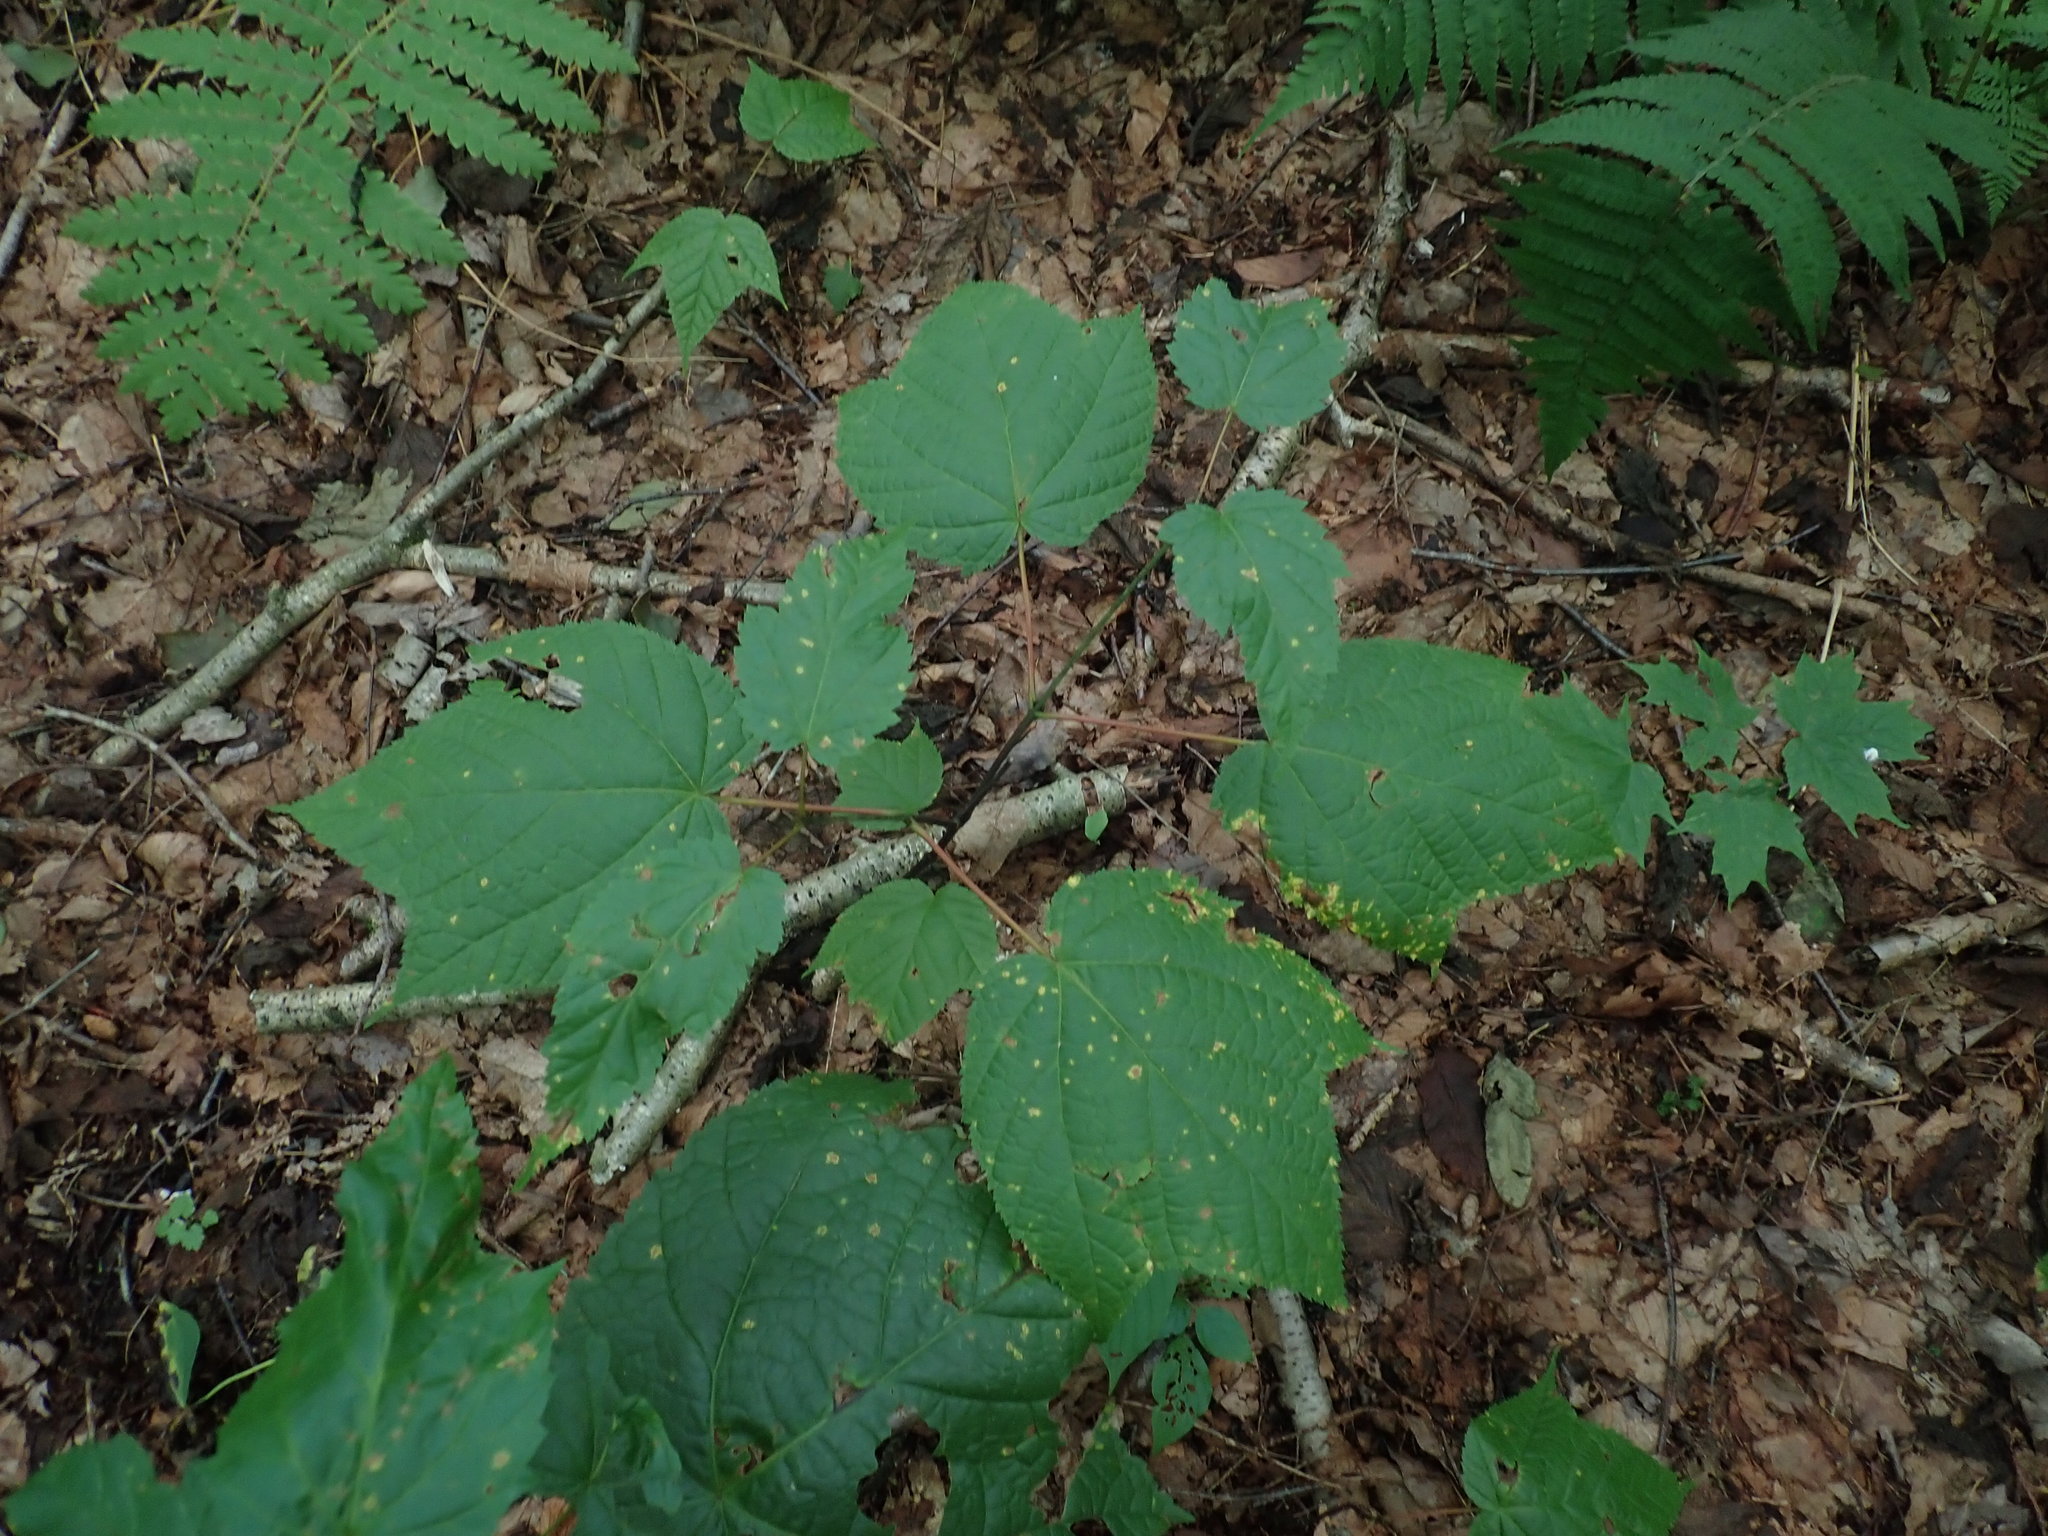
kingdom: Plantae
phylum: Tracheophyta
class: Magnoliopsida
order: Sapindales
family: Sapindaceae
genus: Acer
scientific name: Acer pensylvanicum
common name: Moosewood
